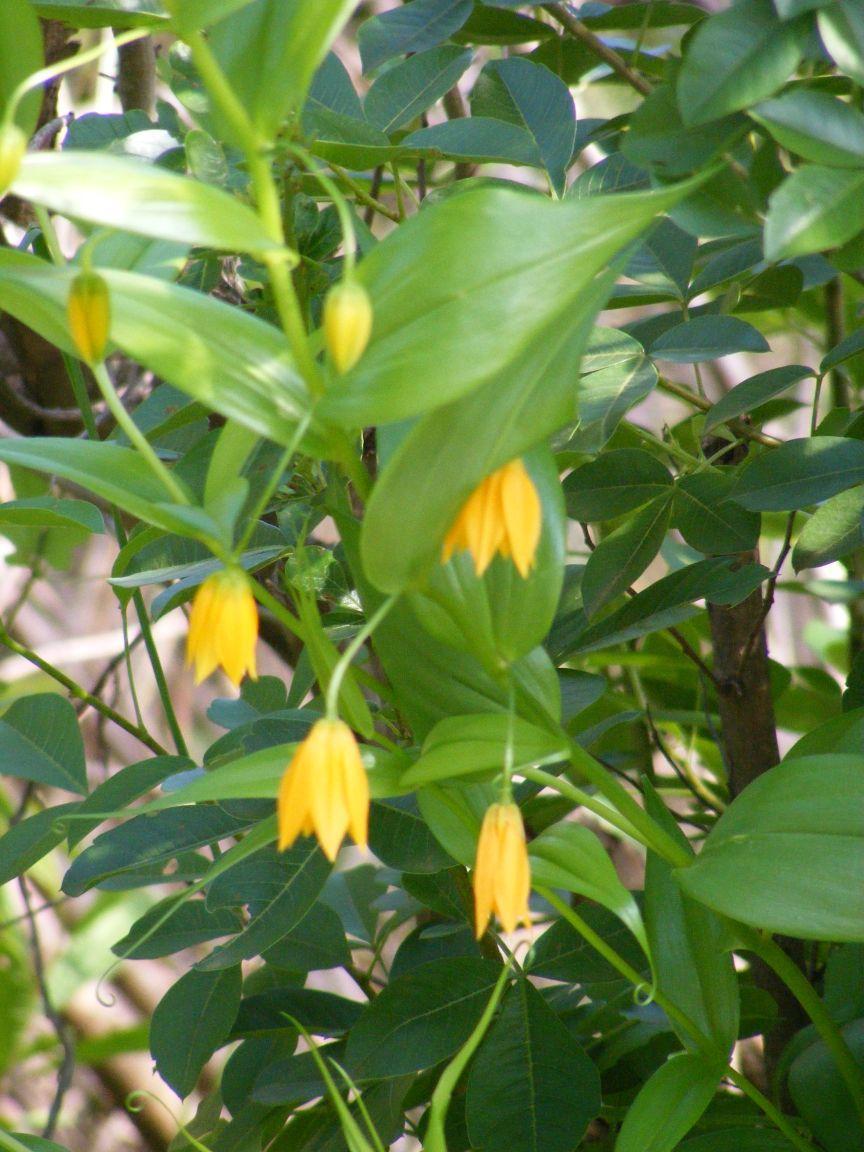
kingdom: Plantae
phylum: Tracheophyta
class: Liliopsida
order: Liliales
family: Colchicaceae
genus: Gloriosa
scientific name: Gloriosa modesta
